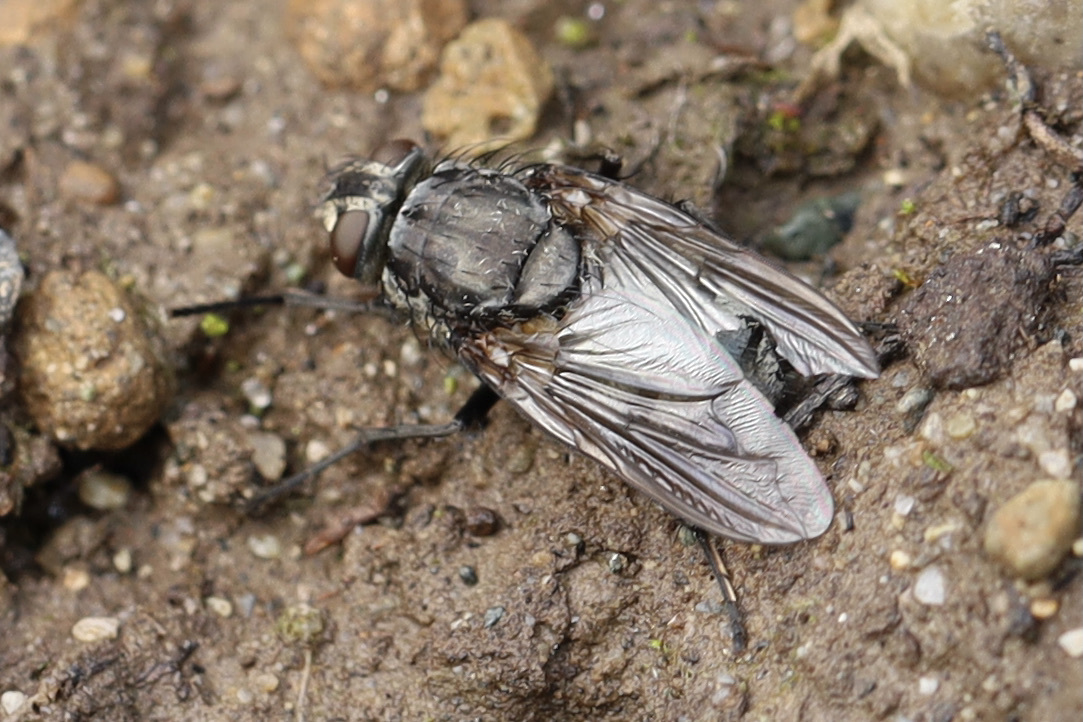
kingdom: Animalia
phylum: Arthropoda
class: Insecta
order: Diptera
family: Polleniidae
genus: Pollenia
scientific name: Pollenia vagabunda
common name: Vagabund cluster fly
